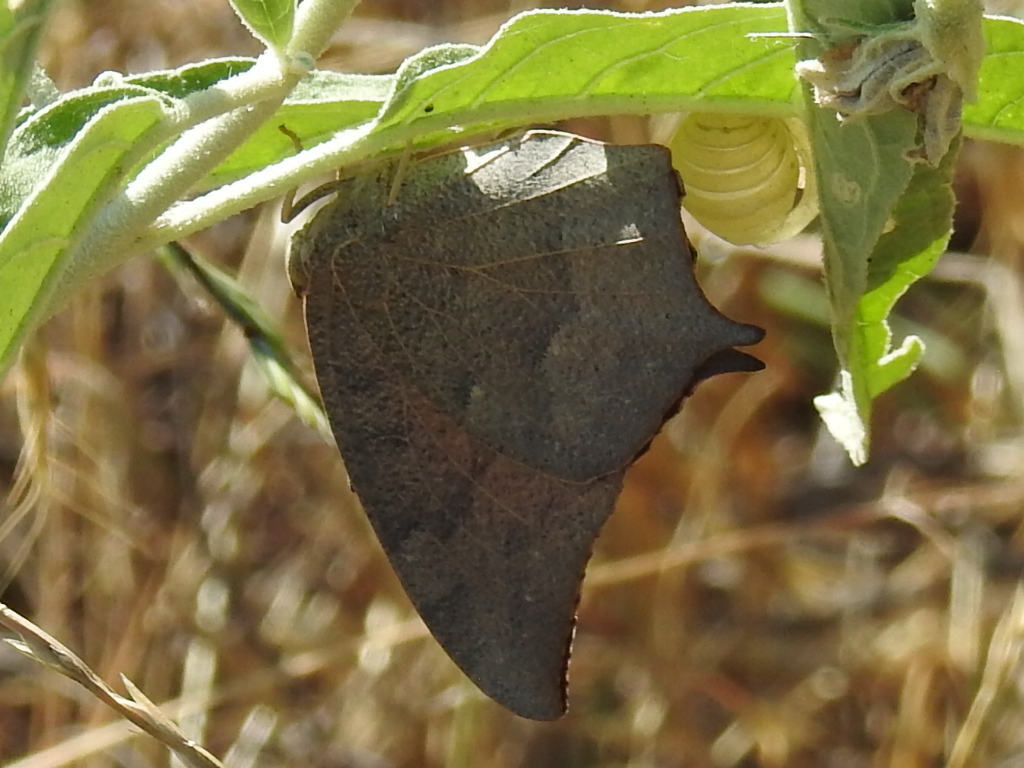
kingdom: Animalia
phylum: Arthropoda
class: Insecta
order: Lepidoptera
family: Nymphalidae
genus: Anaea
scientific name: Anaea andria
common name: Goatweed leafwing
